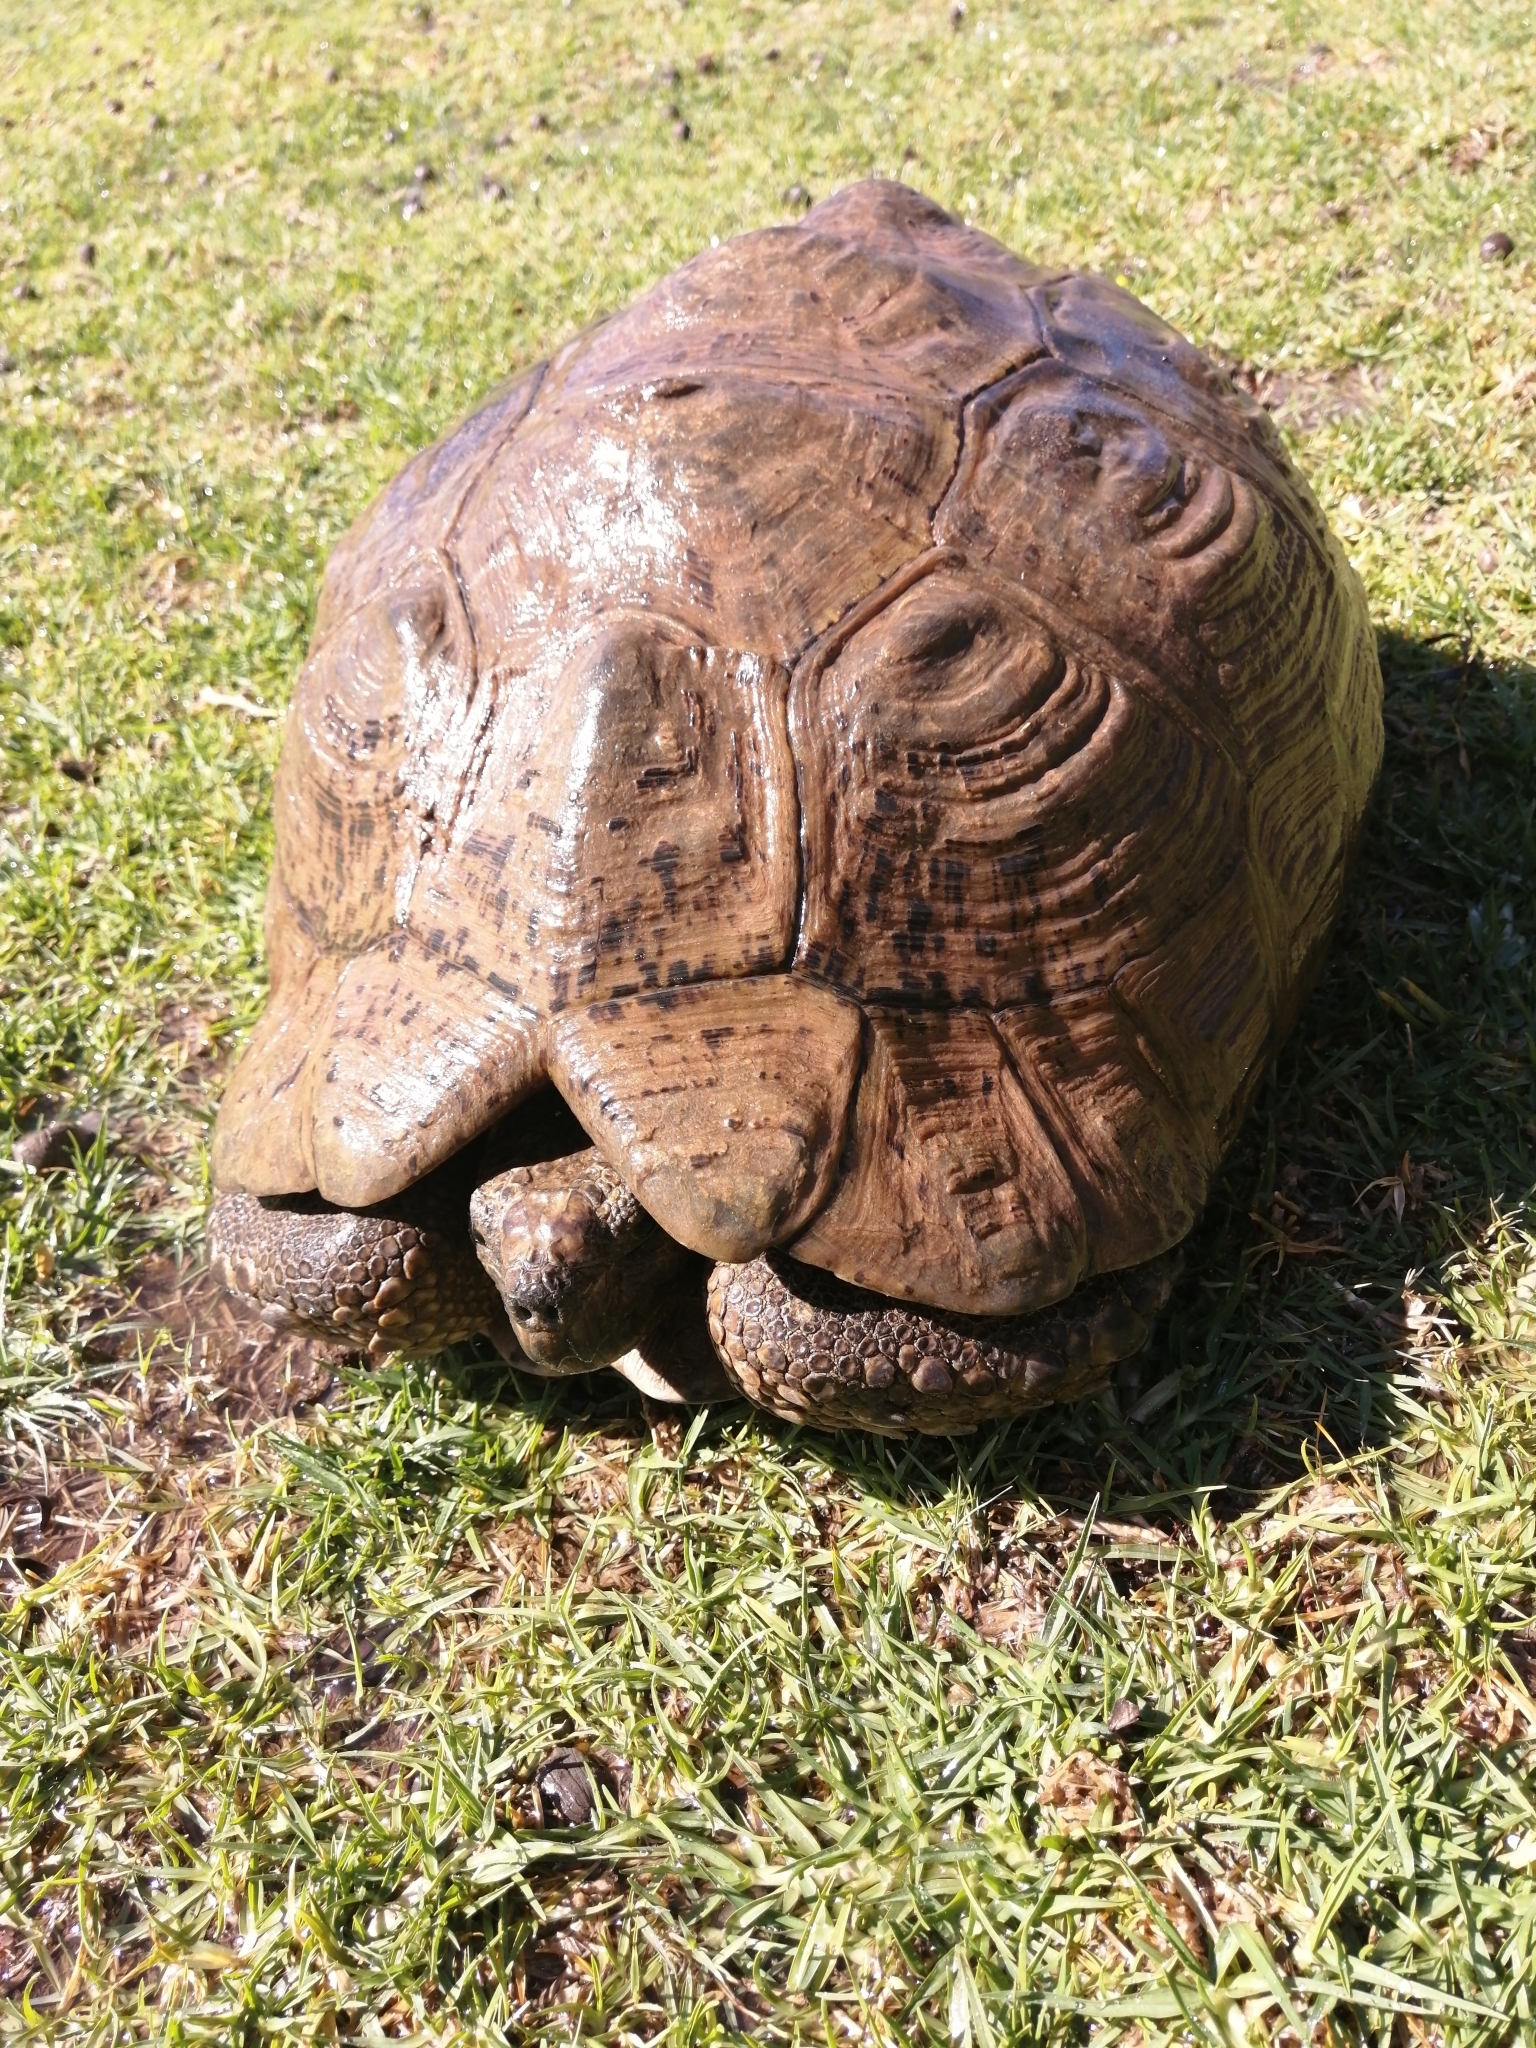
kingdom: Animalia
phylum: Chordata
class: Testudines
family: Testudinidae
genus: Stigmochelys
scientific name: Stigmochelys pardalis
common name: Leopard tortoise
